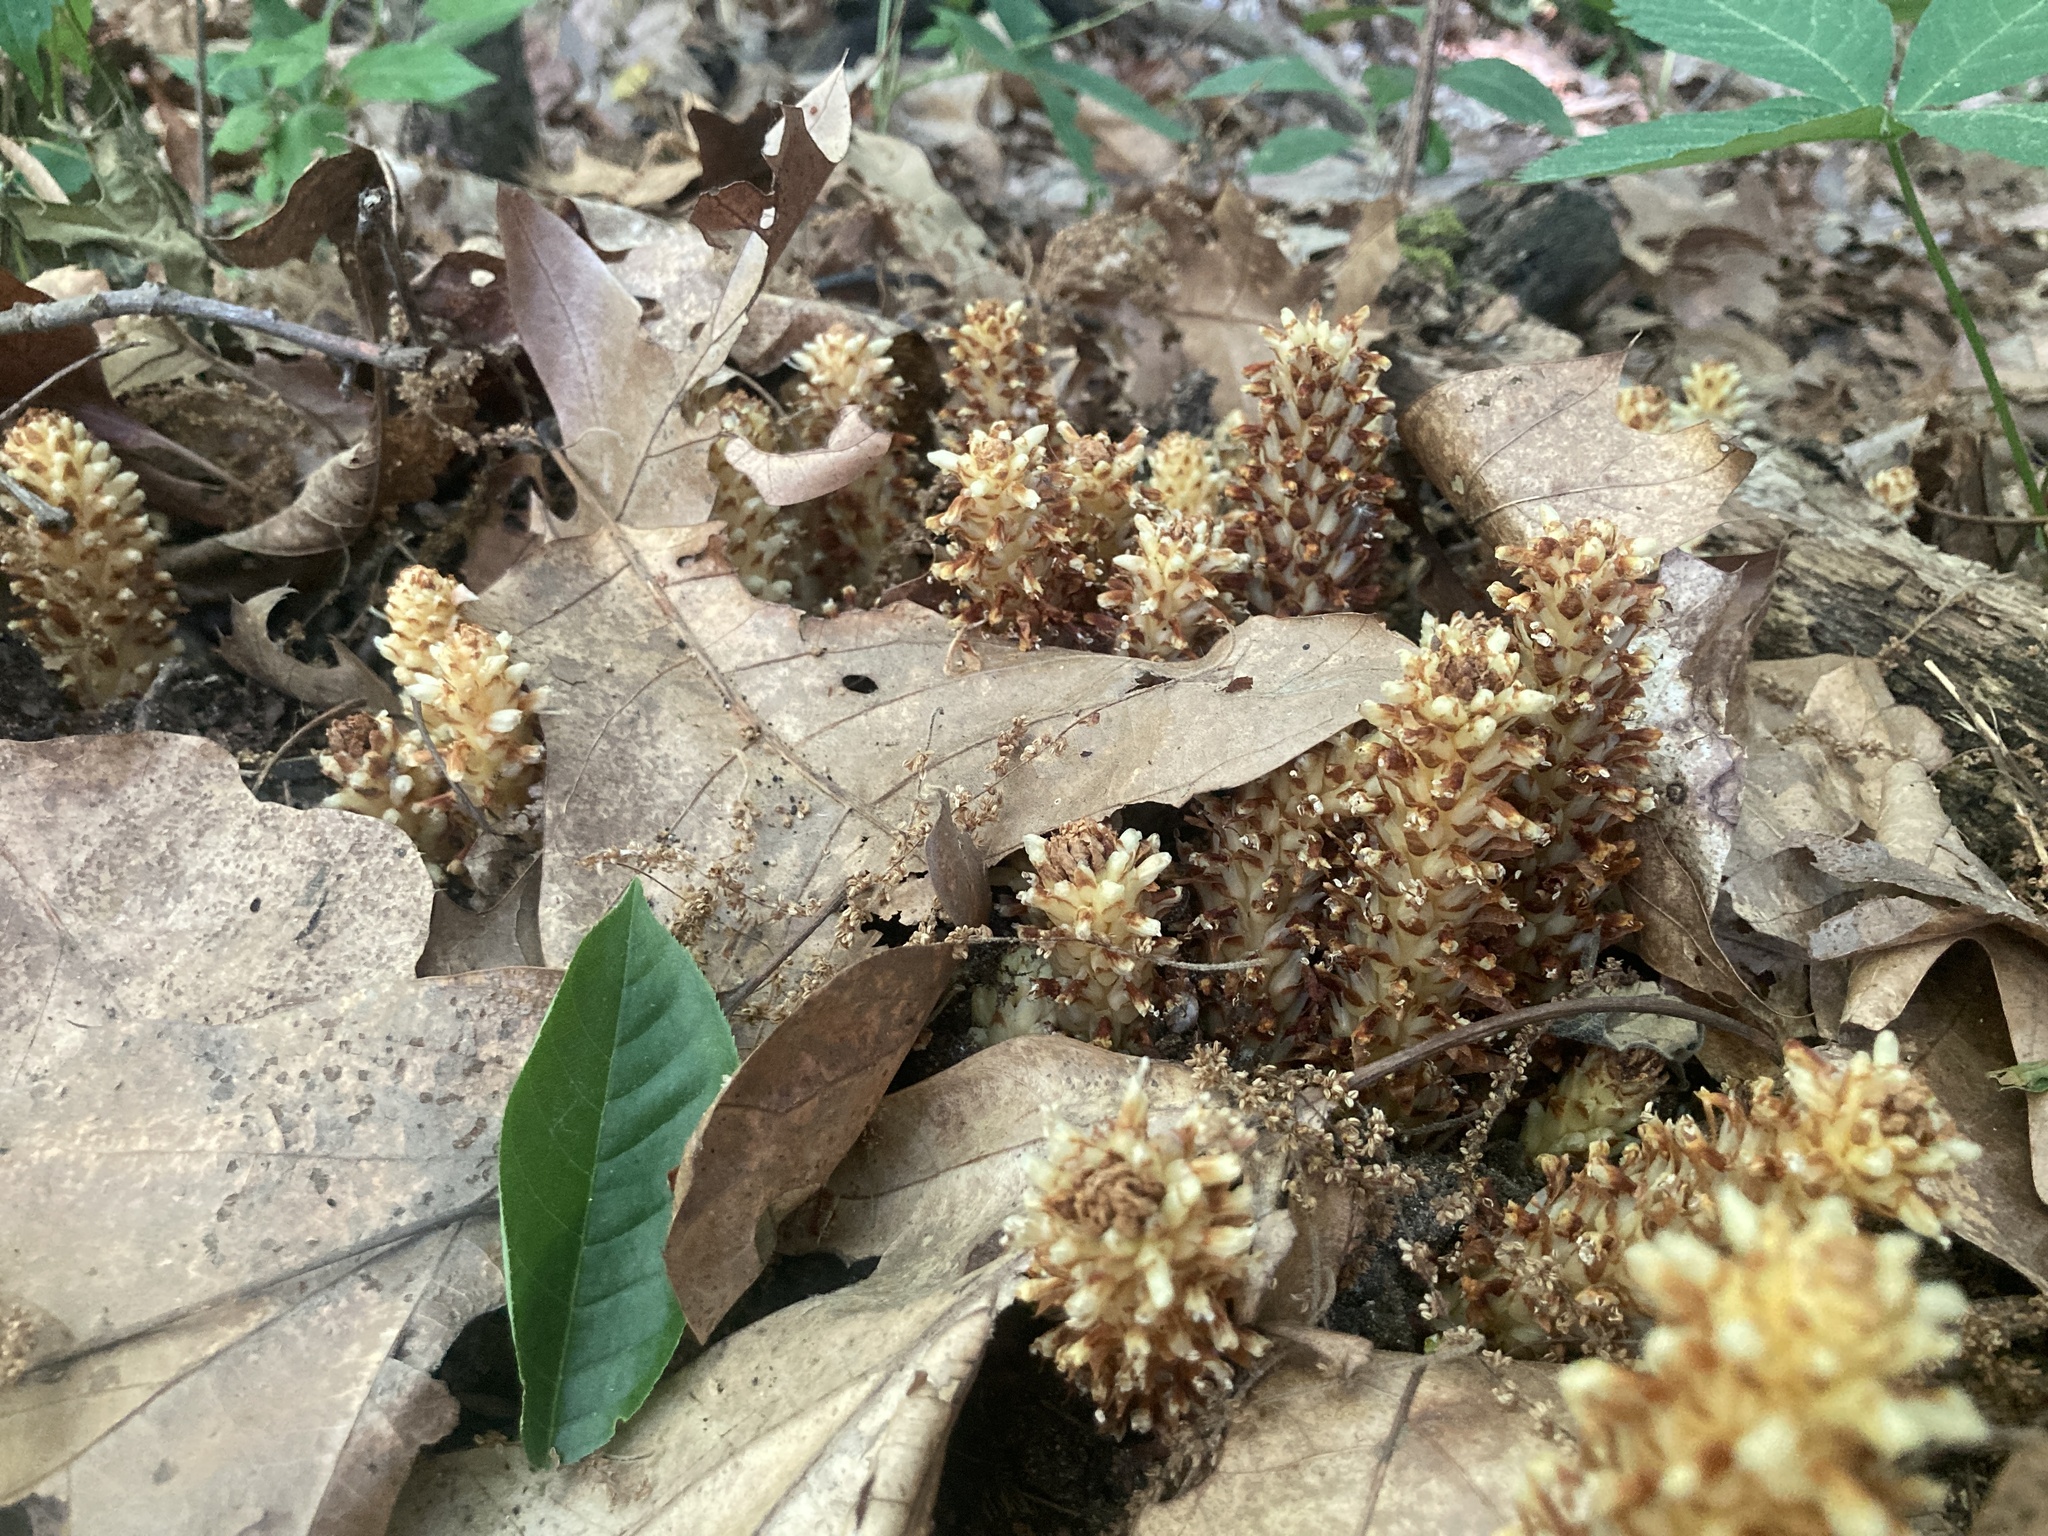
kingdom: Plantae
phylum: Tracheophyta
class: Magnoliopsida
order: Lamiales
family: Orobanchaceae
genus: Conopholis
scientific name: Conopholis americana
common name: American cancer-root
